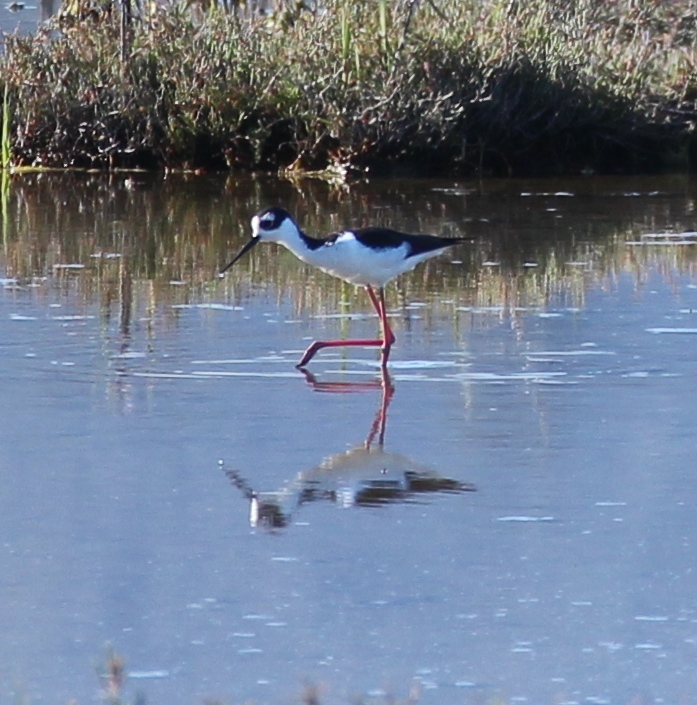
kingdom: Animalia
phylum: Chordata
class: Aves
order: Charadriiformes
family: Recurvirostridae
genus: Himantopus
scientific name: Himantopus mexicanus
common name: Black-necked stilt
